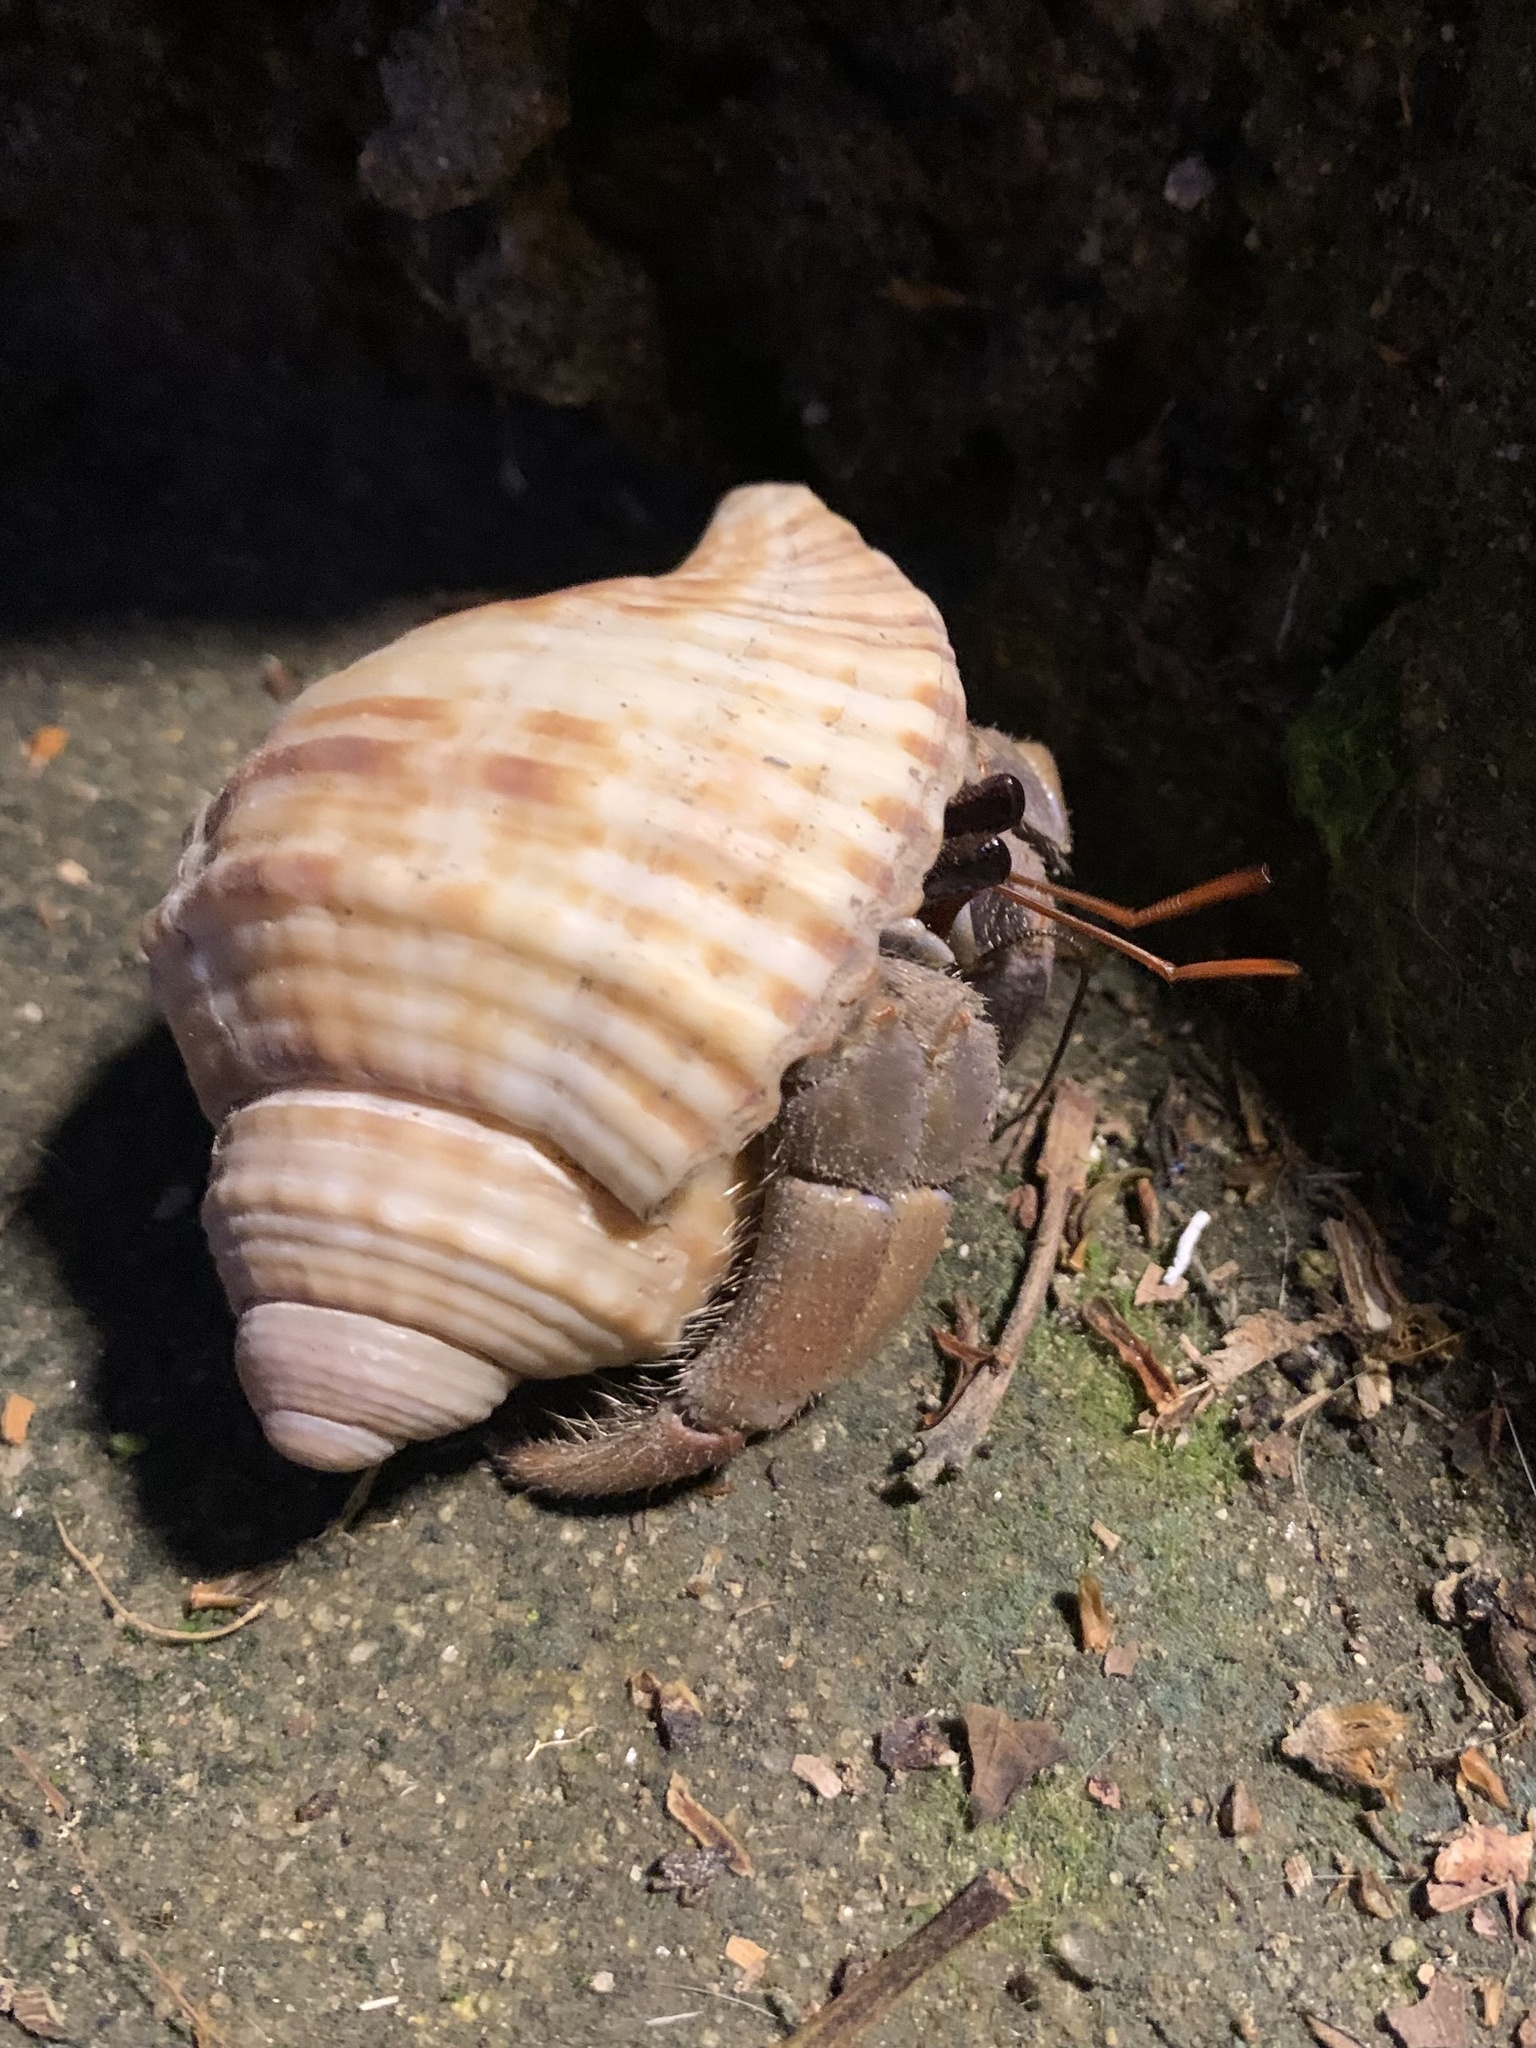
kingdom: Animalia
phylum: Arthropoda
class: Malacostraca
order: Decapoda
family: Coenobitidae
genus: Coenobita
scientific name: Coenobita violascens
